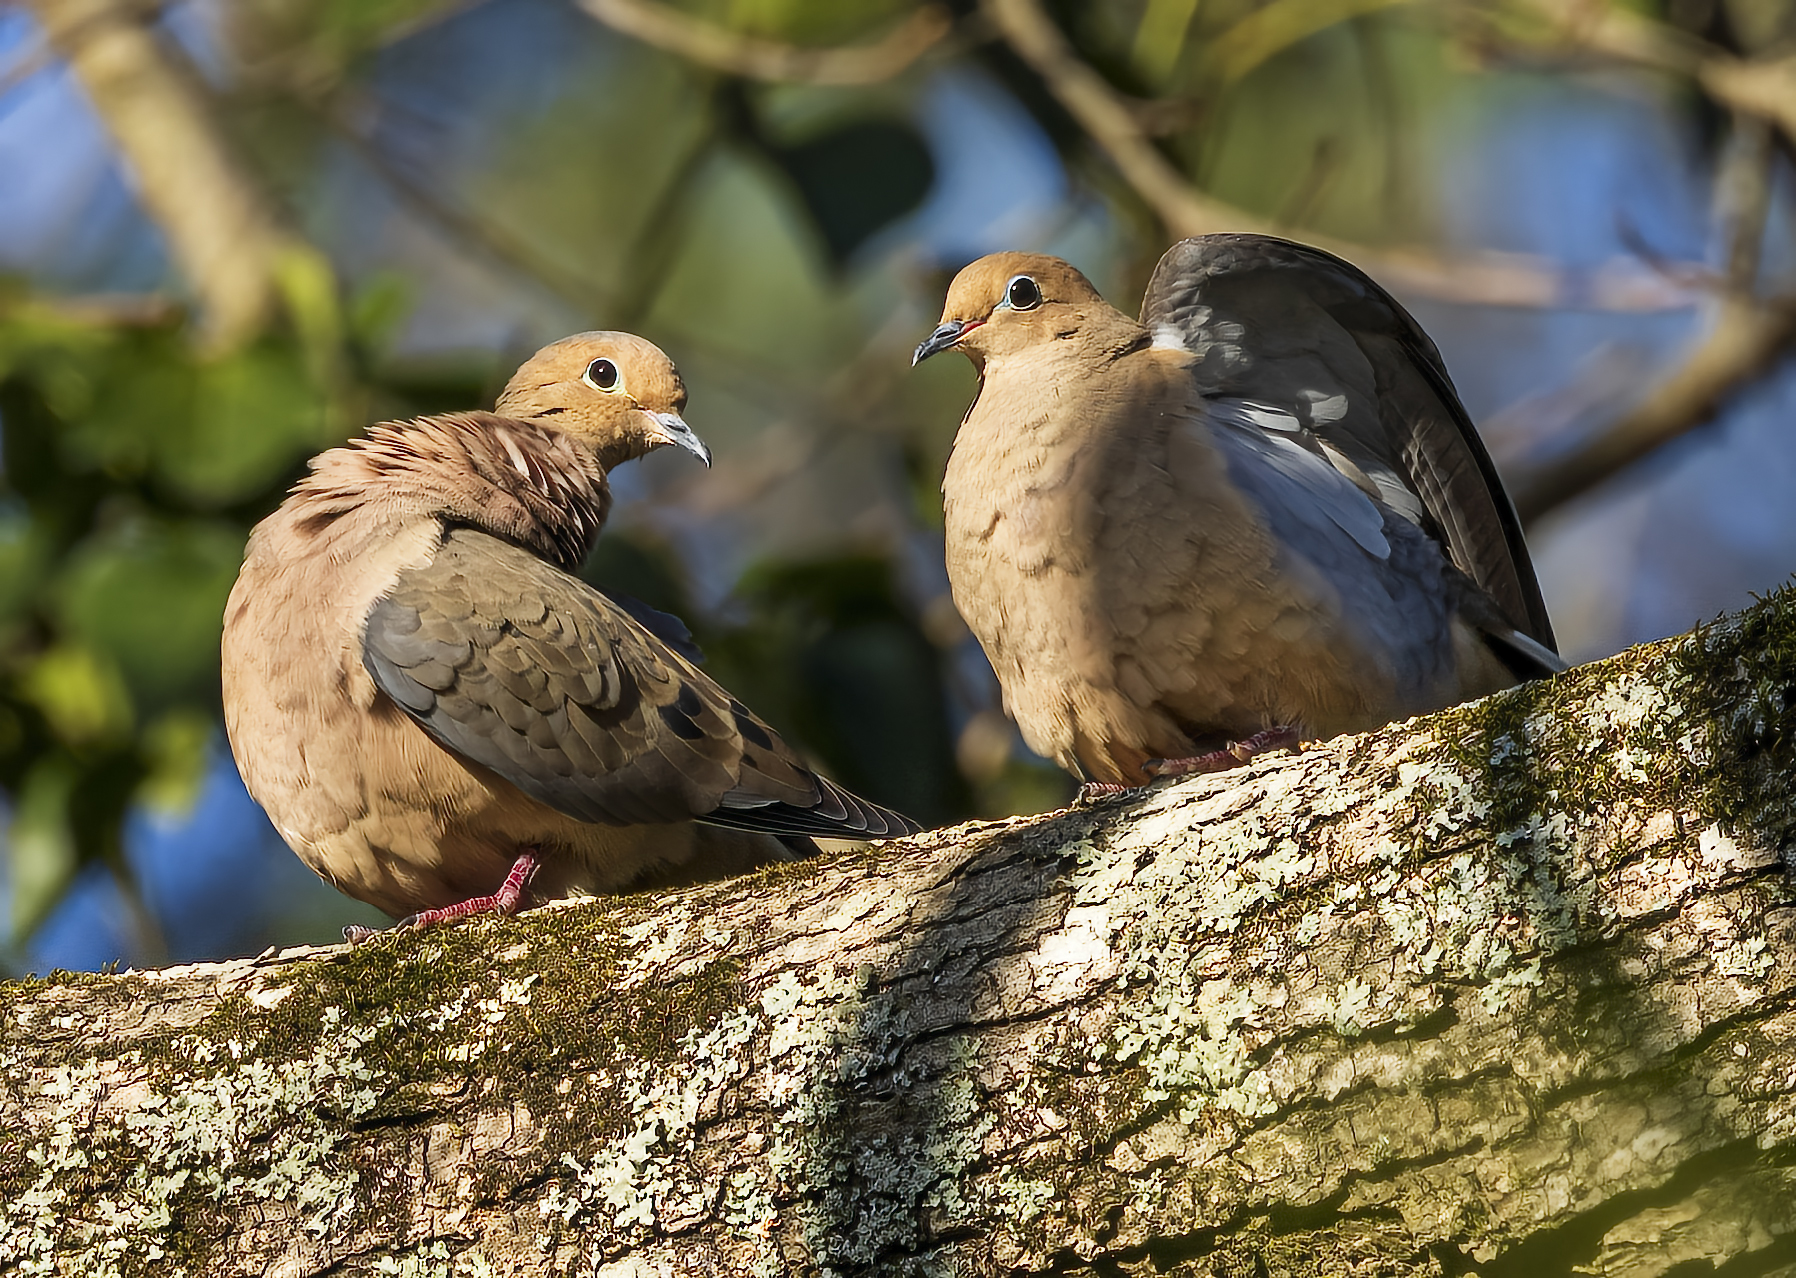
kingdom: Animalia
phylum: Chordata
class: Aves
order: Columbiformes
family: Columbidae
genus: Zenaida
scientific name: Zenaida macroura
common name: Mourning dove
